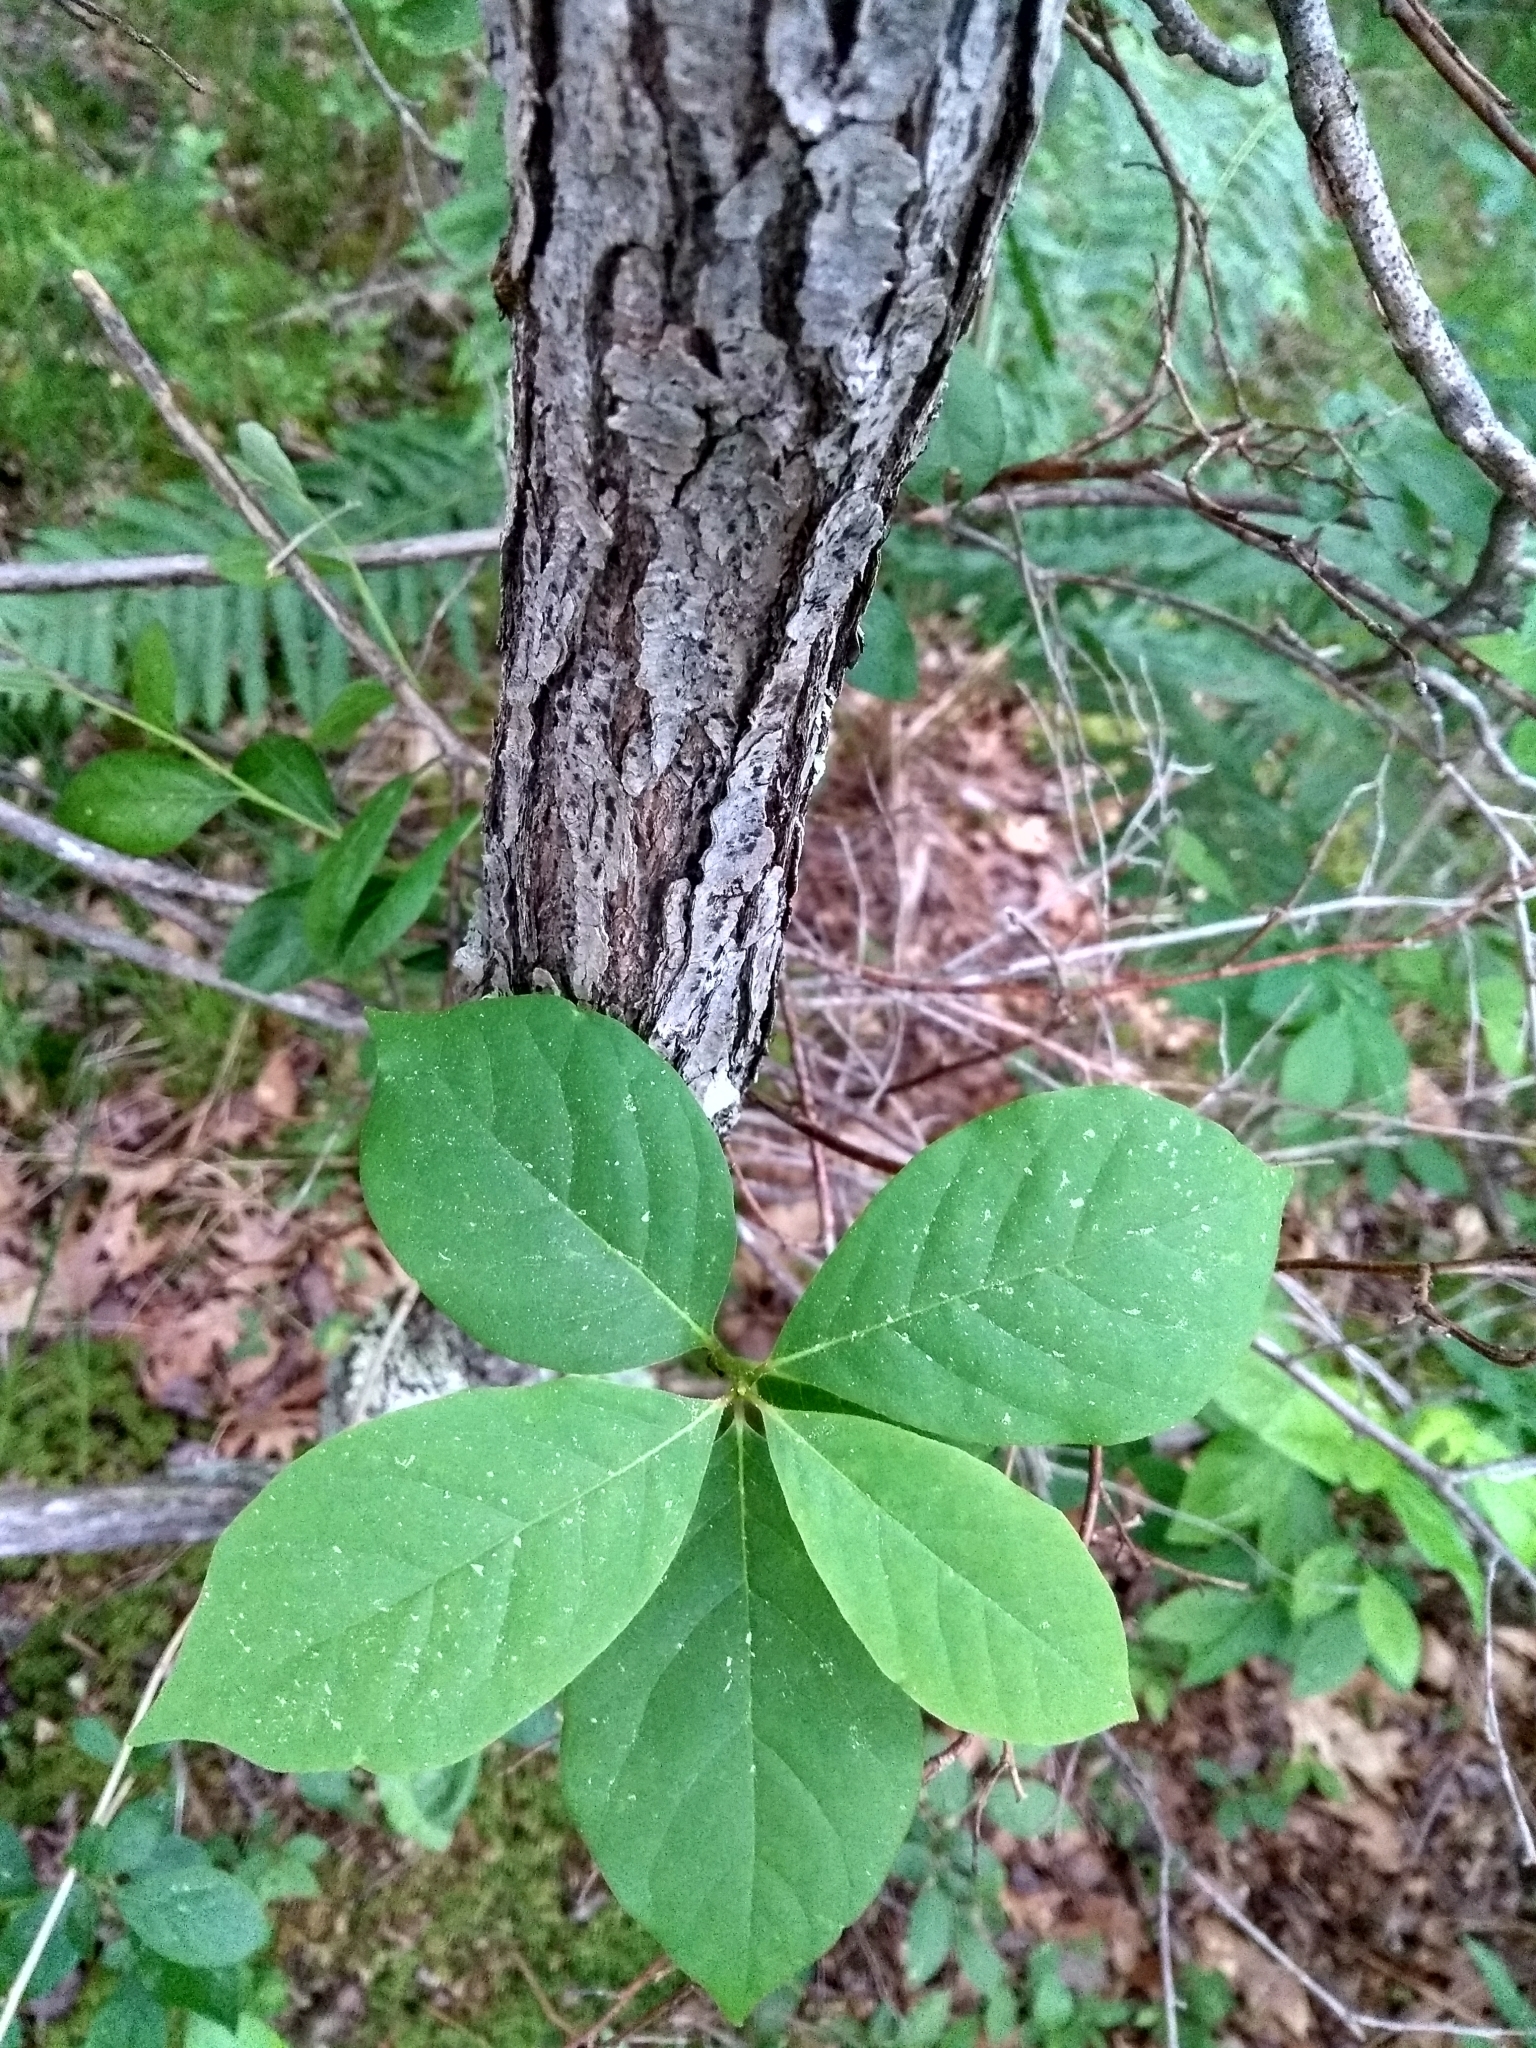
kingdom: Plantae
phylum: Tracheophyta
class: Magnoliopsida
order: Cornales
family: Nyssaceae
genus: Nyssa
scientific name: Nyssa sylvatica
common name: Black tupelo
